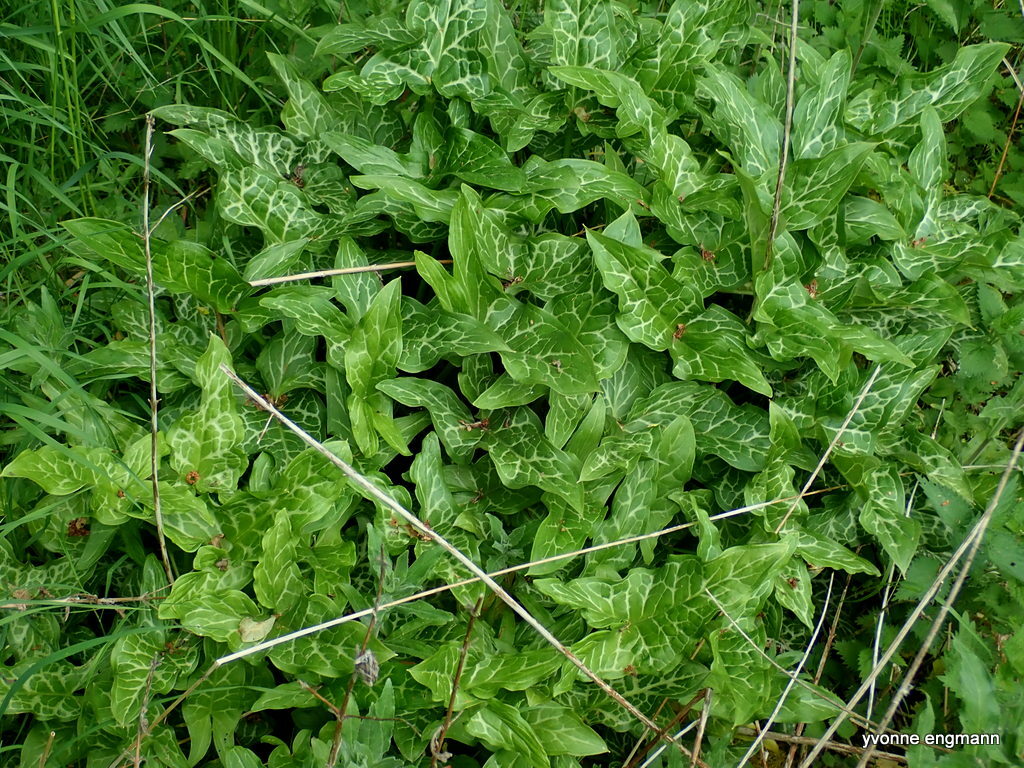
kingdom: Plantae
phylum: Tracheophyta
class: Liliopsida
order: Alismatales
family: Araceae
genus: Arum
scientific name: Arum italicum
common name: Italian lords-and-ladies
